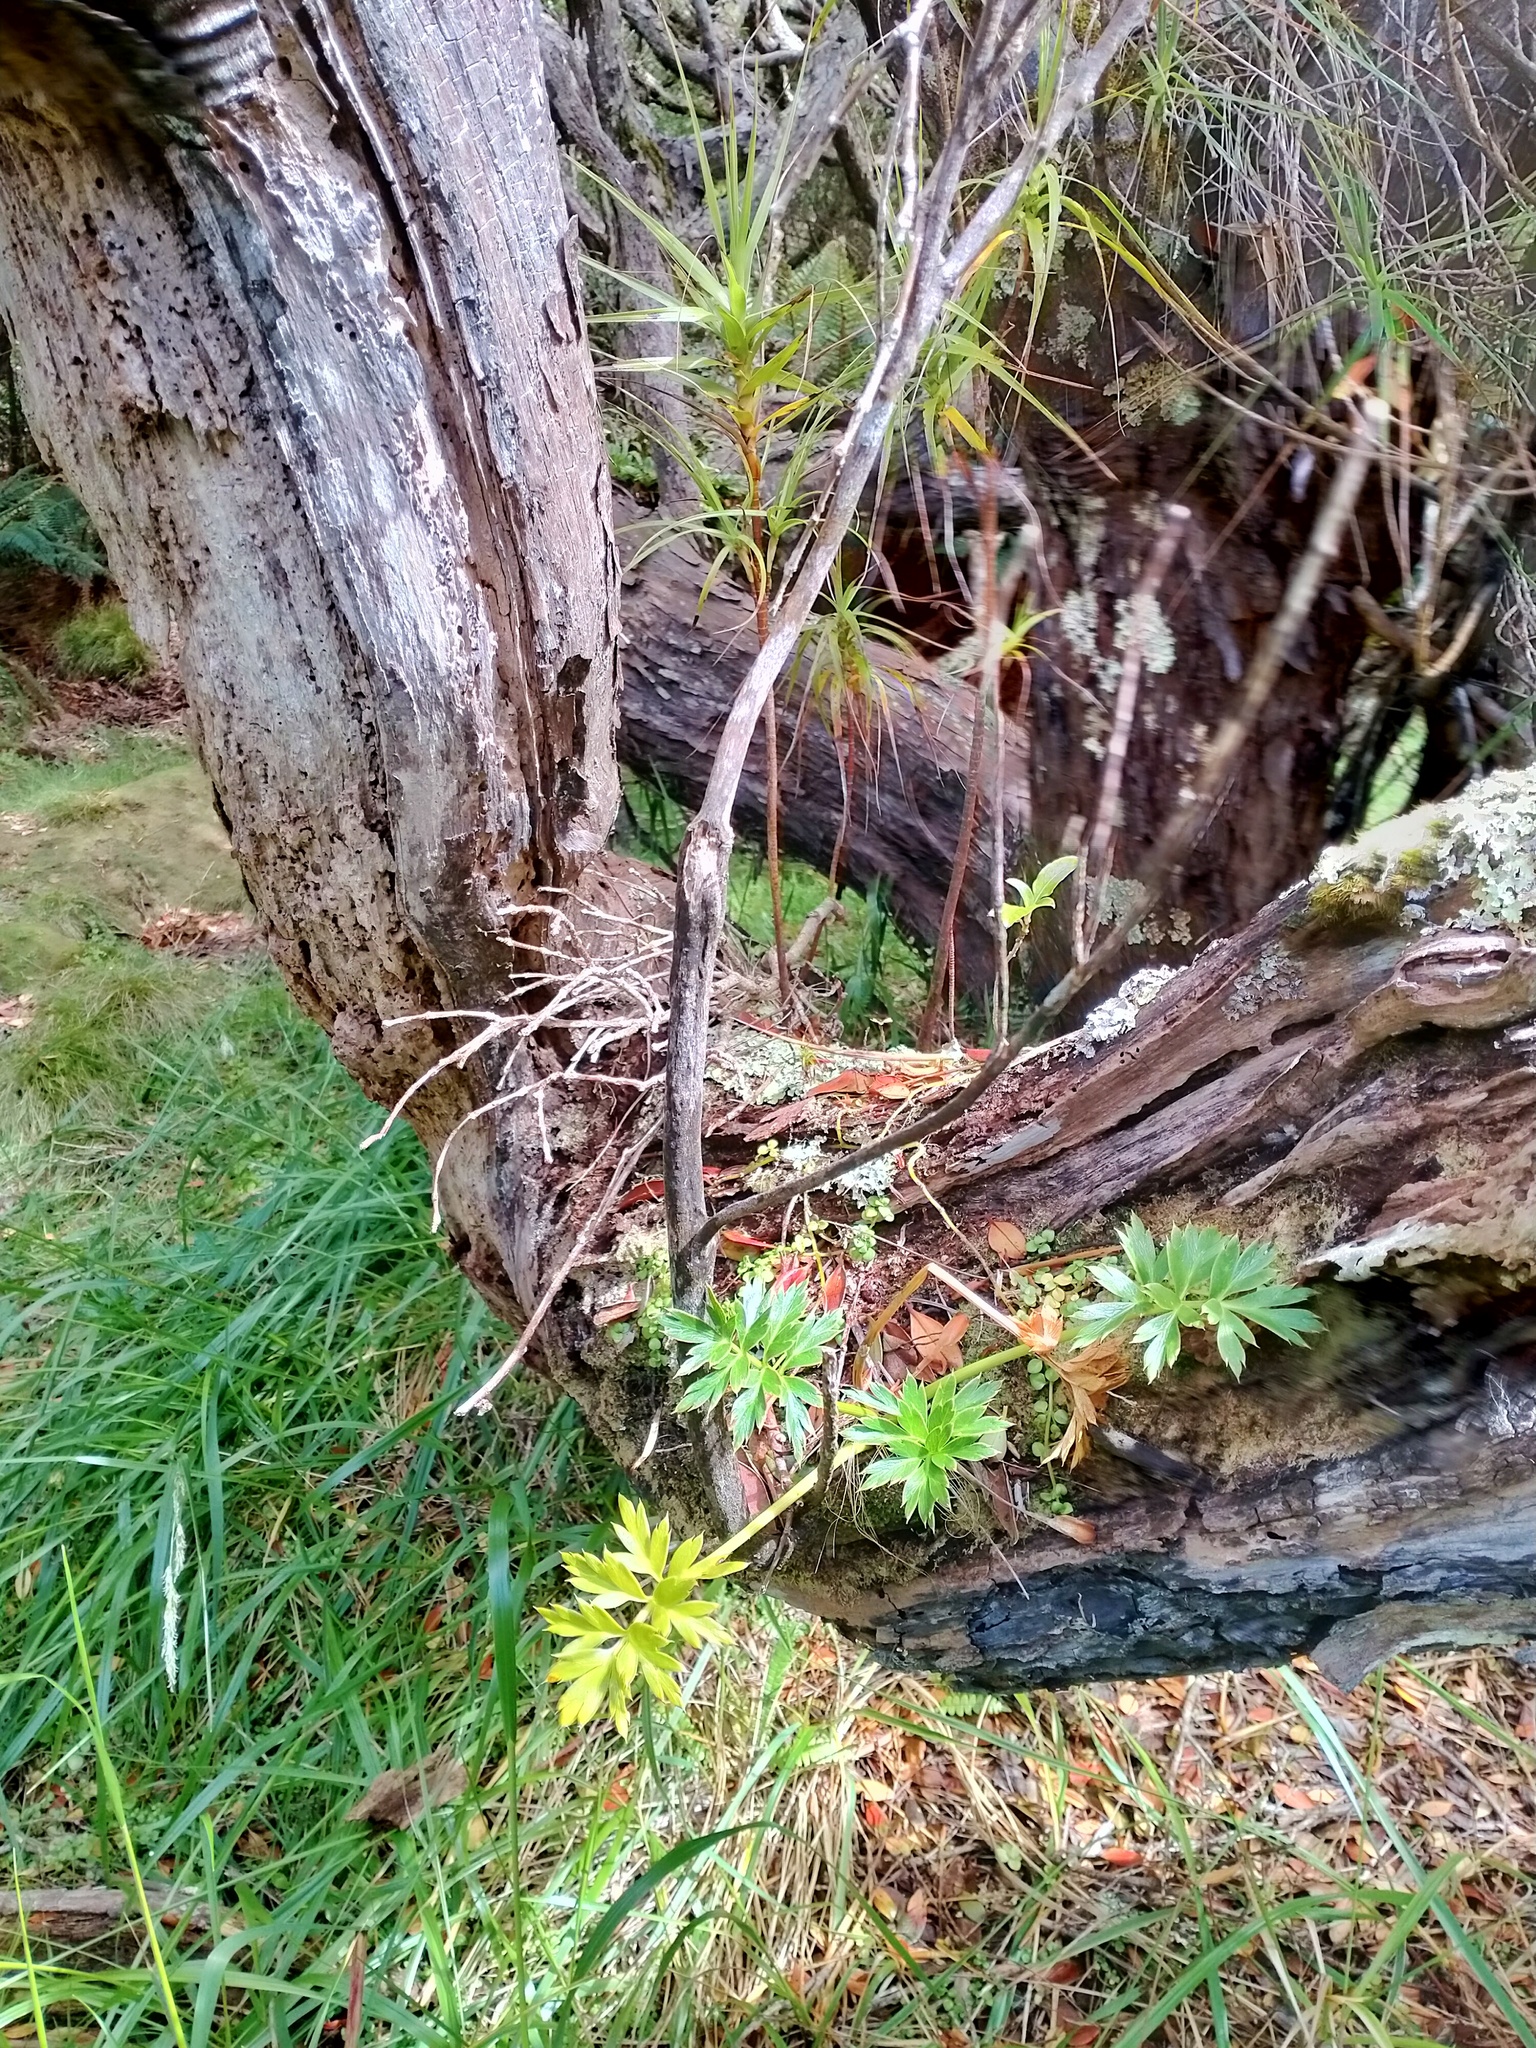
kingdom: Plantae
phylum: Tracheophyta
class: Magnoliopsida
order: Apiales
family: Apiaceae
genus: Anisotome
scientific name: Anisotome latifolia
